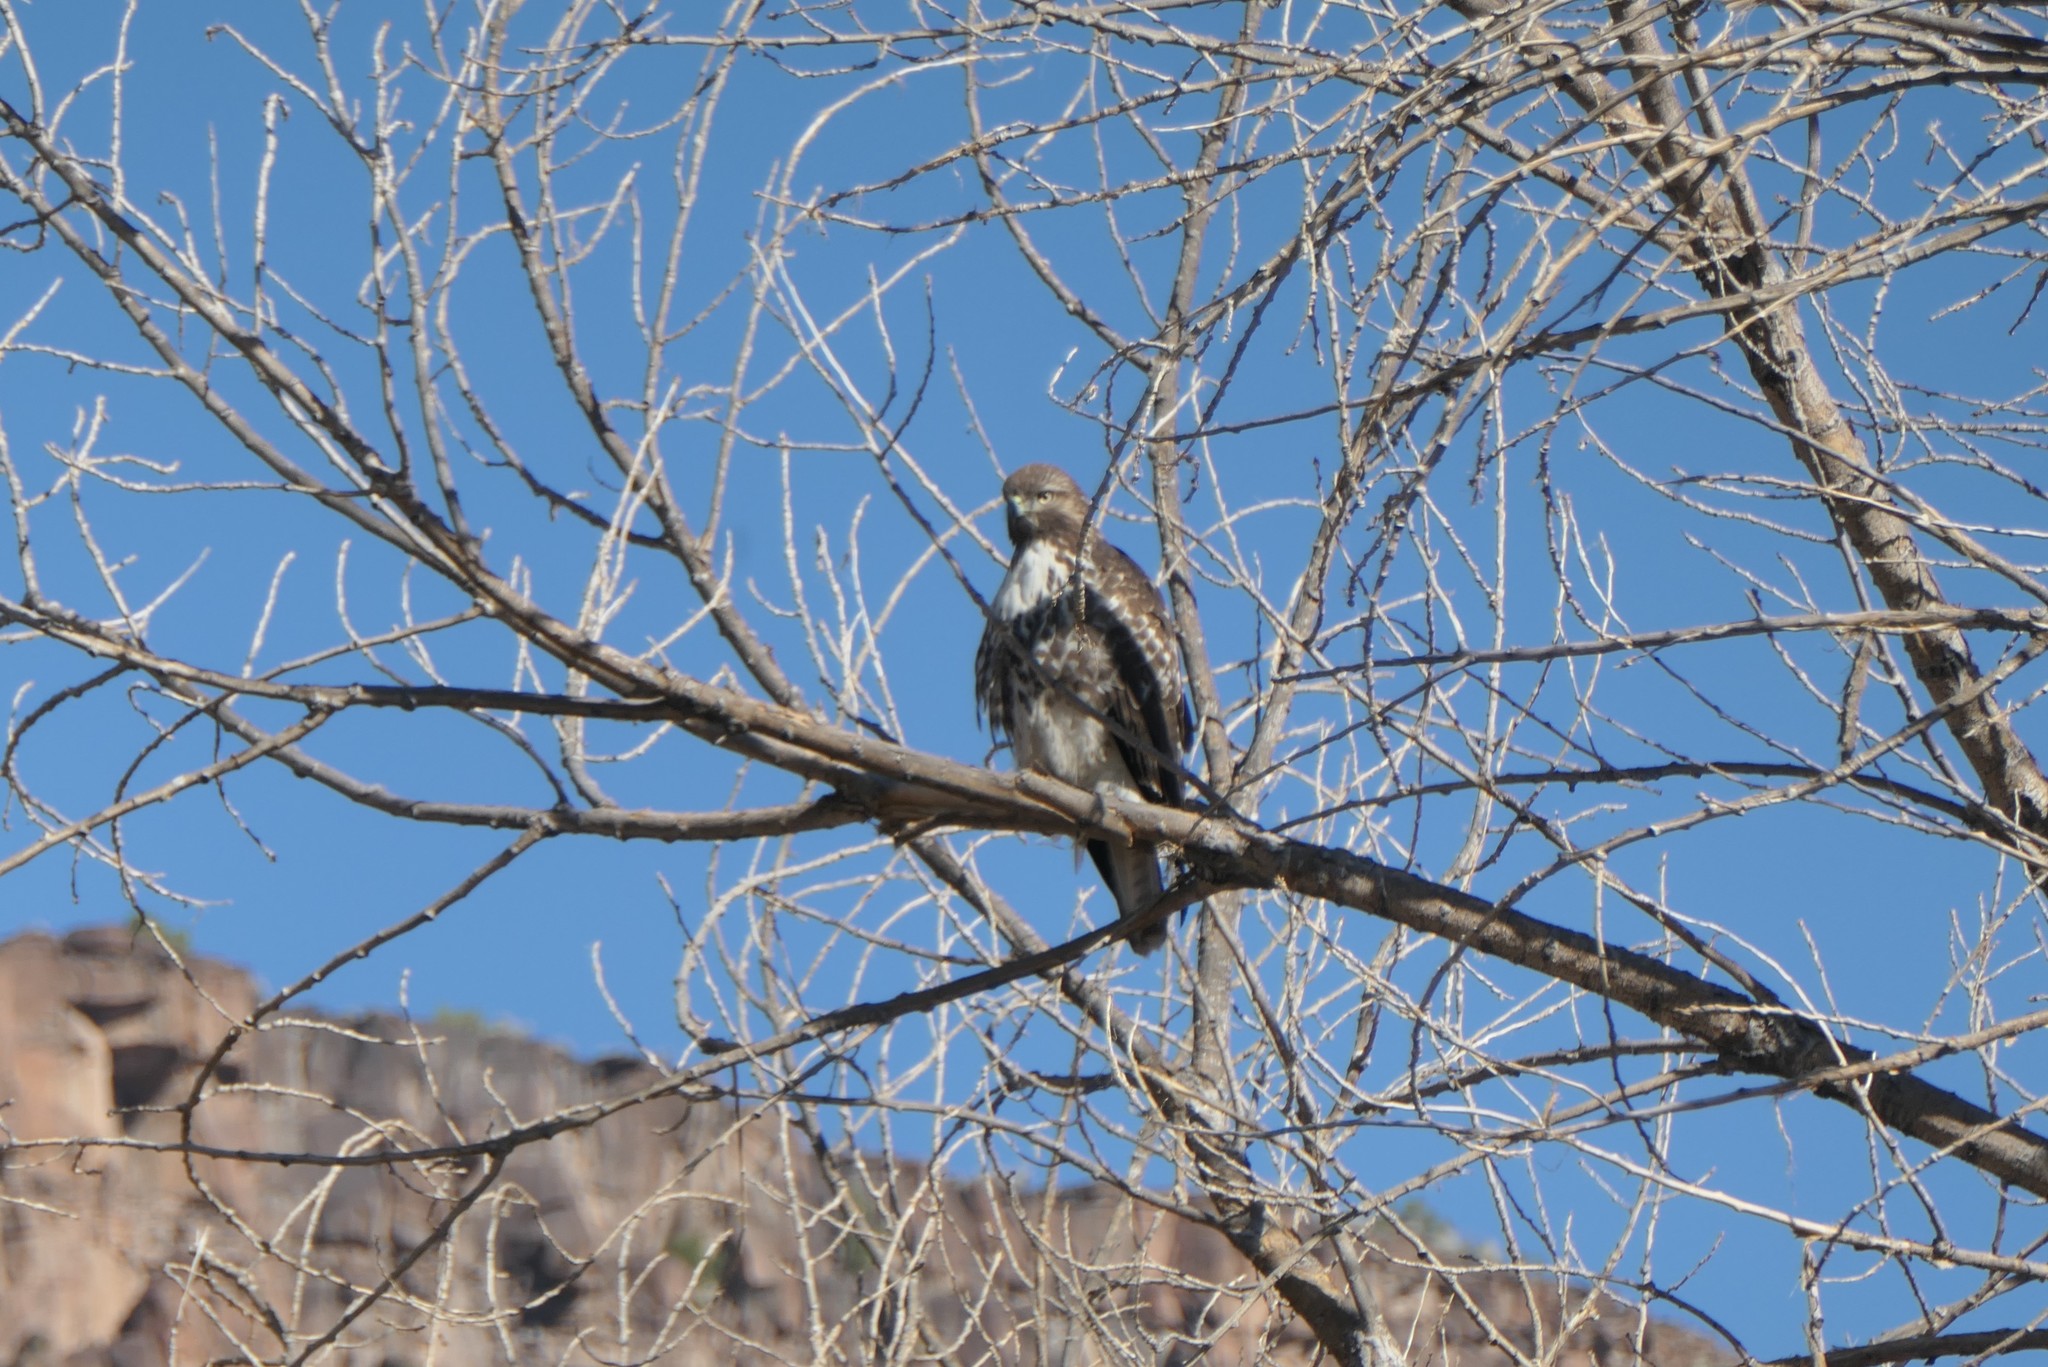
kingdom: Animalia
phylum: Chordata
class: Aves
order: Accipitriformes
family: Accipitridae
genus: Buteo
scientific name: Buteo jamaicensis
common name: Red-tailed hawk
